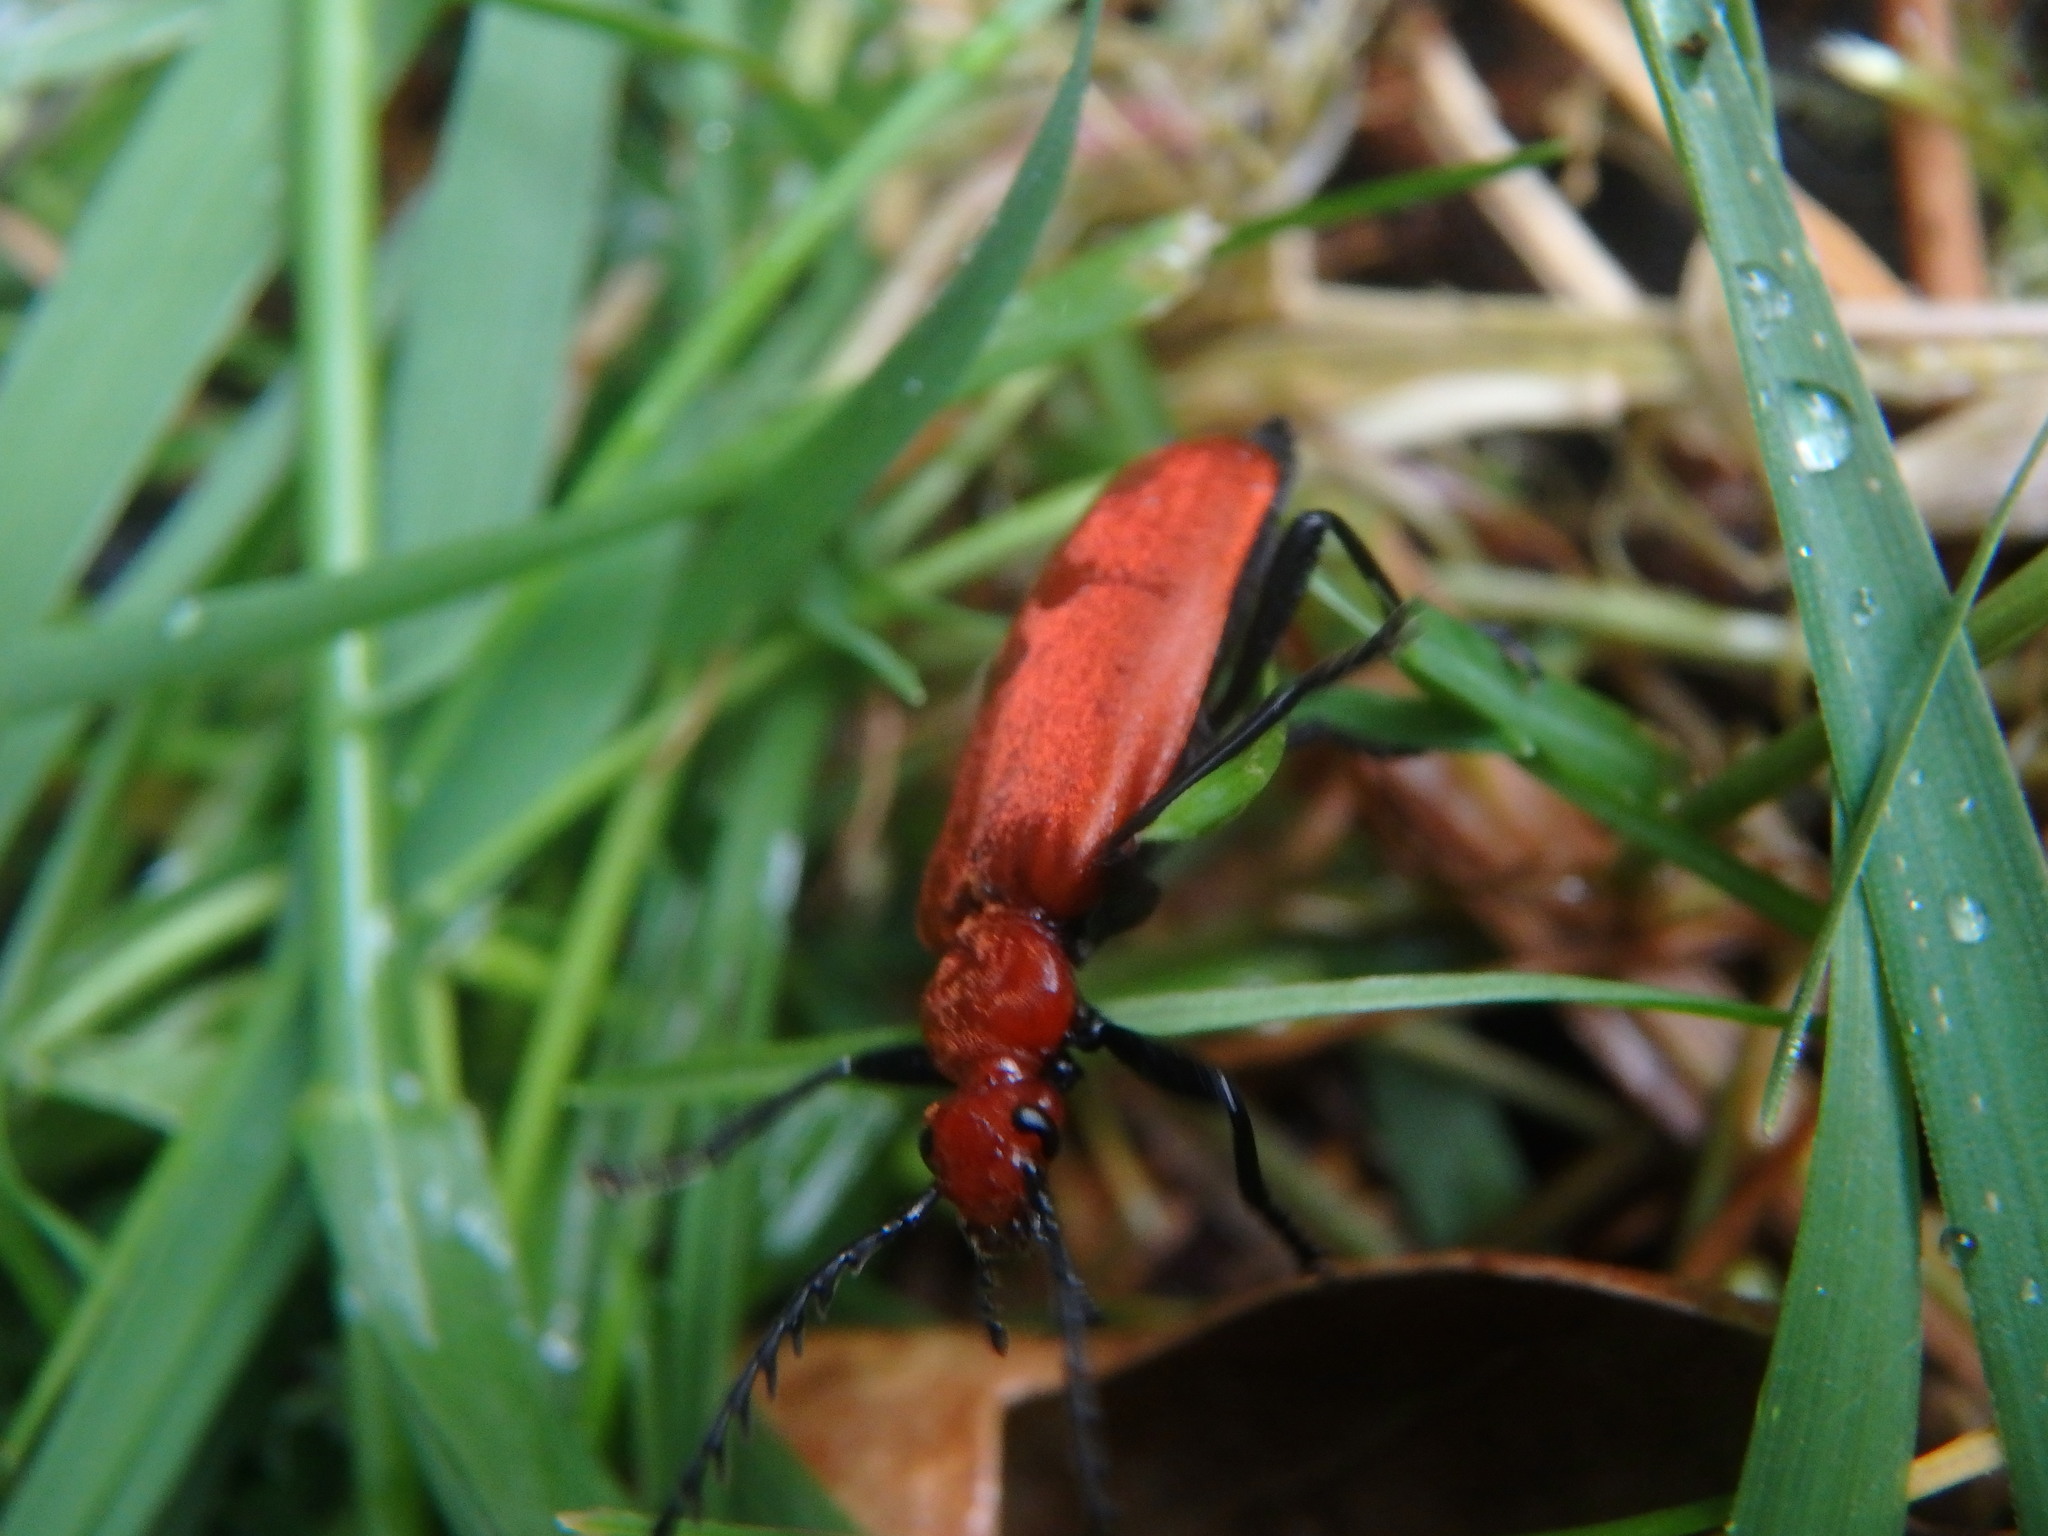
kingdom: Animalia
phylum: Arthropoda
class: Insecta
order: Coleoptera
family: Pyrochroidae
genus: Pyrochroa
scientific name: Pyrochroa serraticornis
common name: Red-headed cardinal beetle
